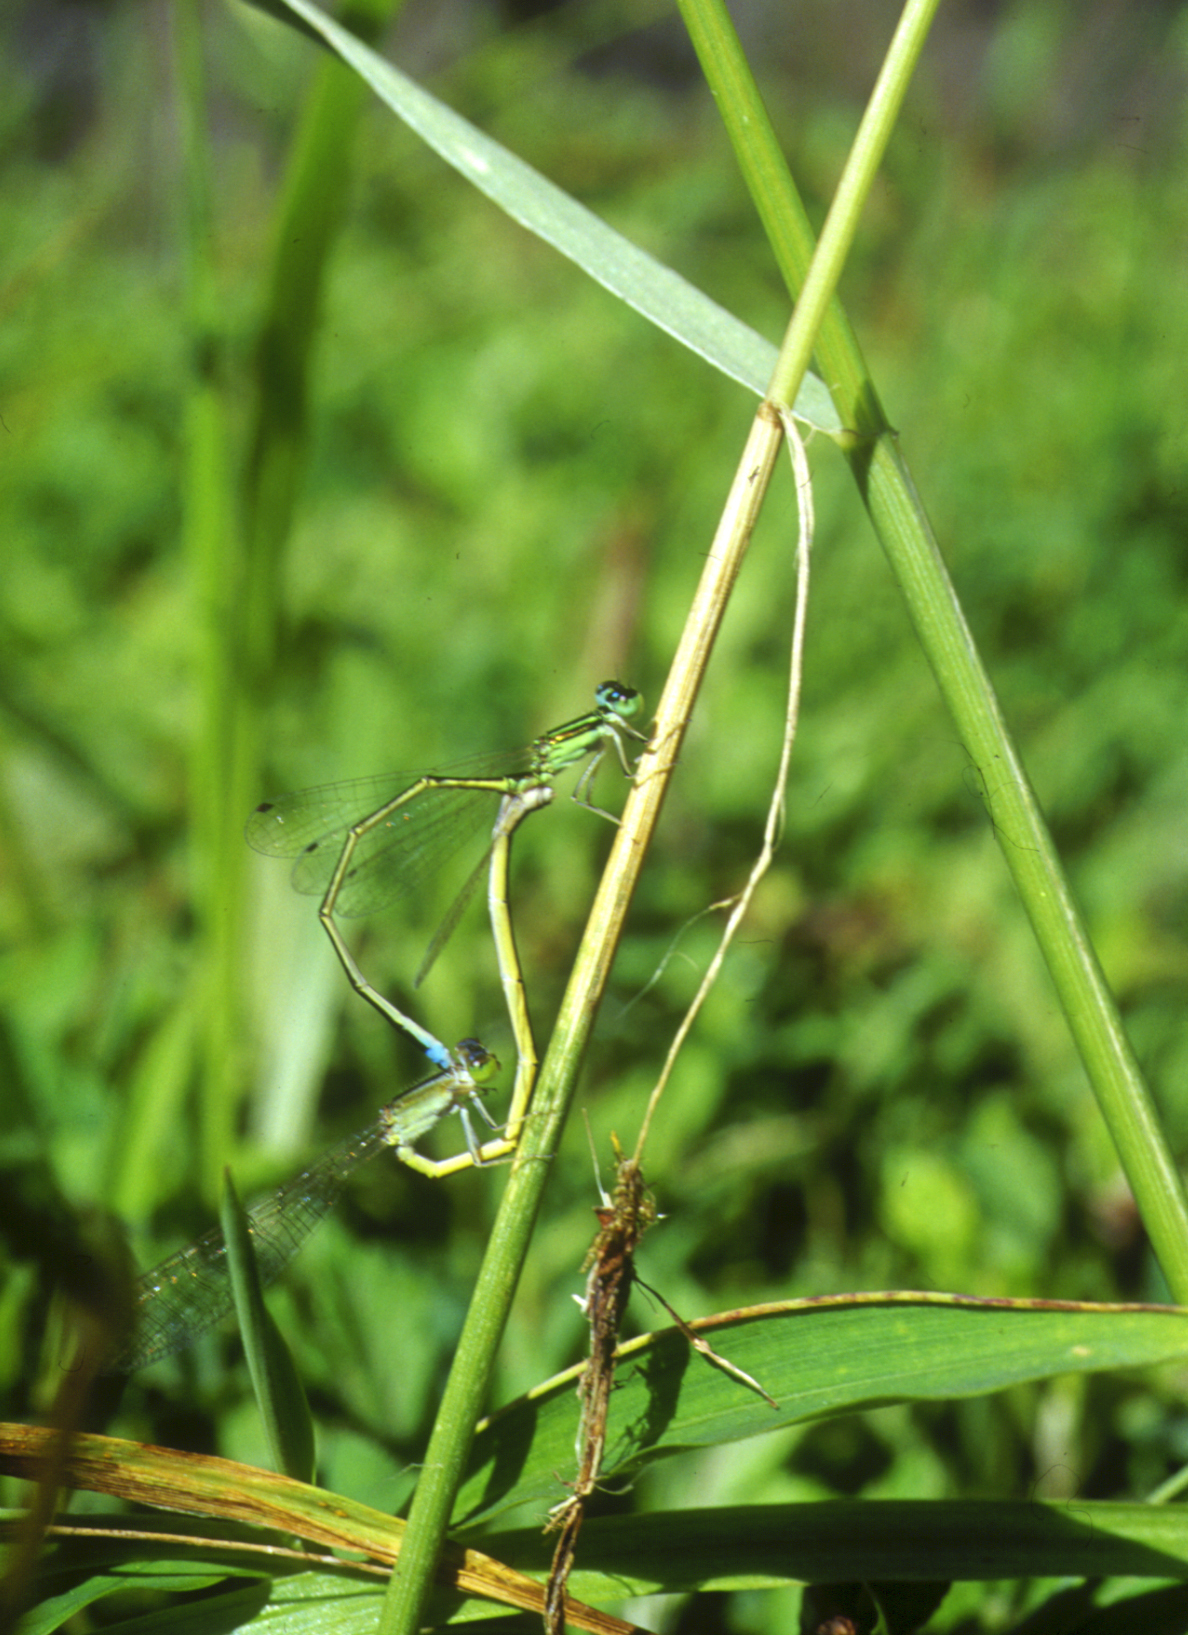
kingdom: Animalia
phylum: Arthropoda
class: Insecta
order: Odonata
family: Coenagrionidae
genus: Ischnura
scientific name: Ischnura asiatica
